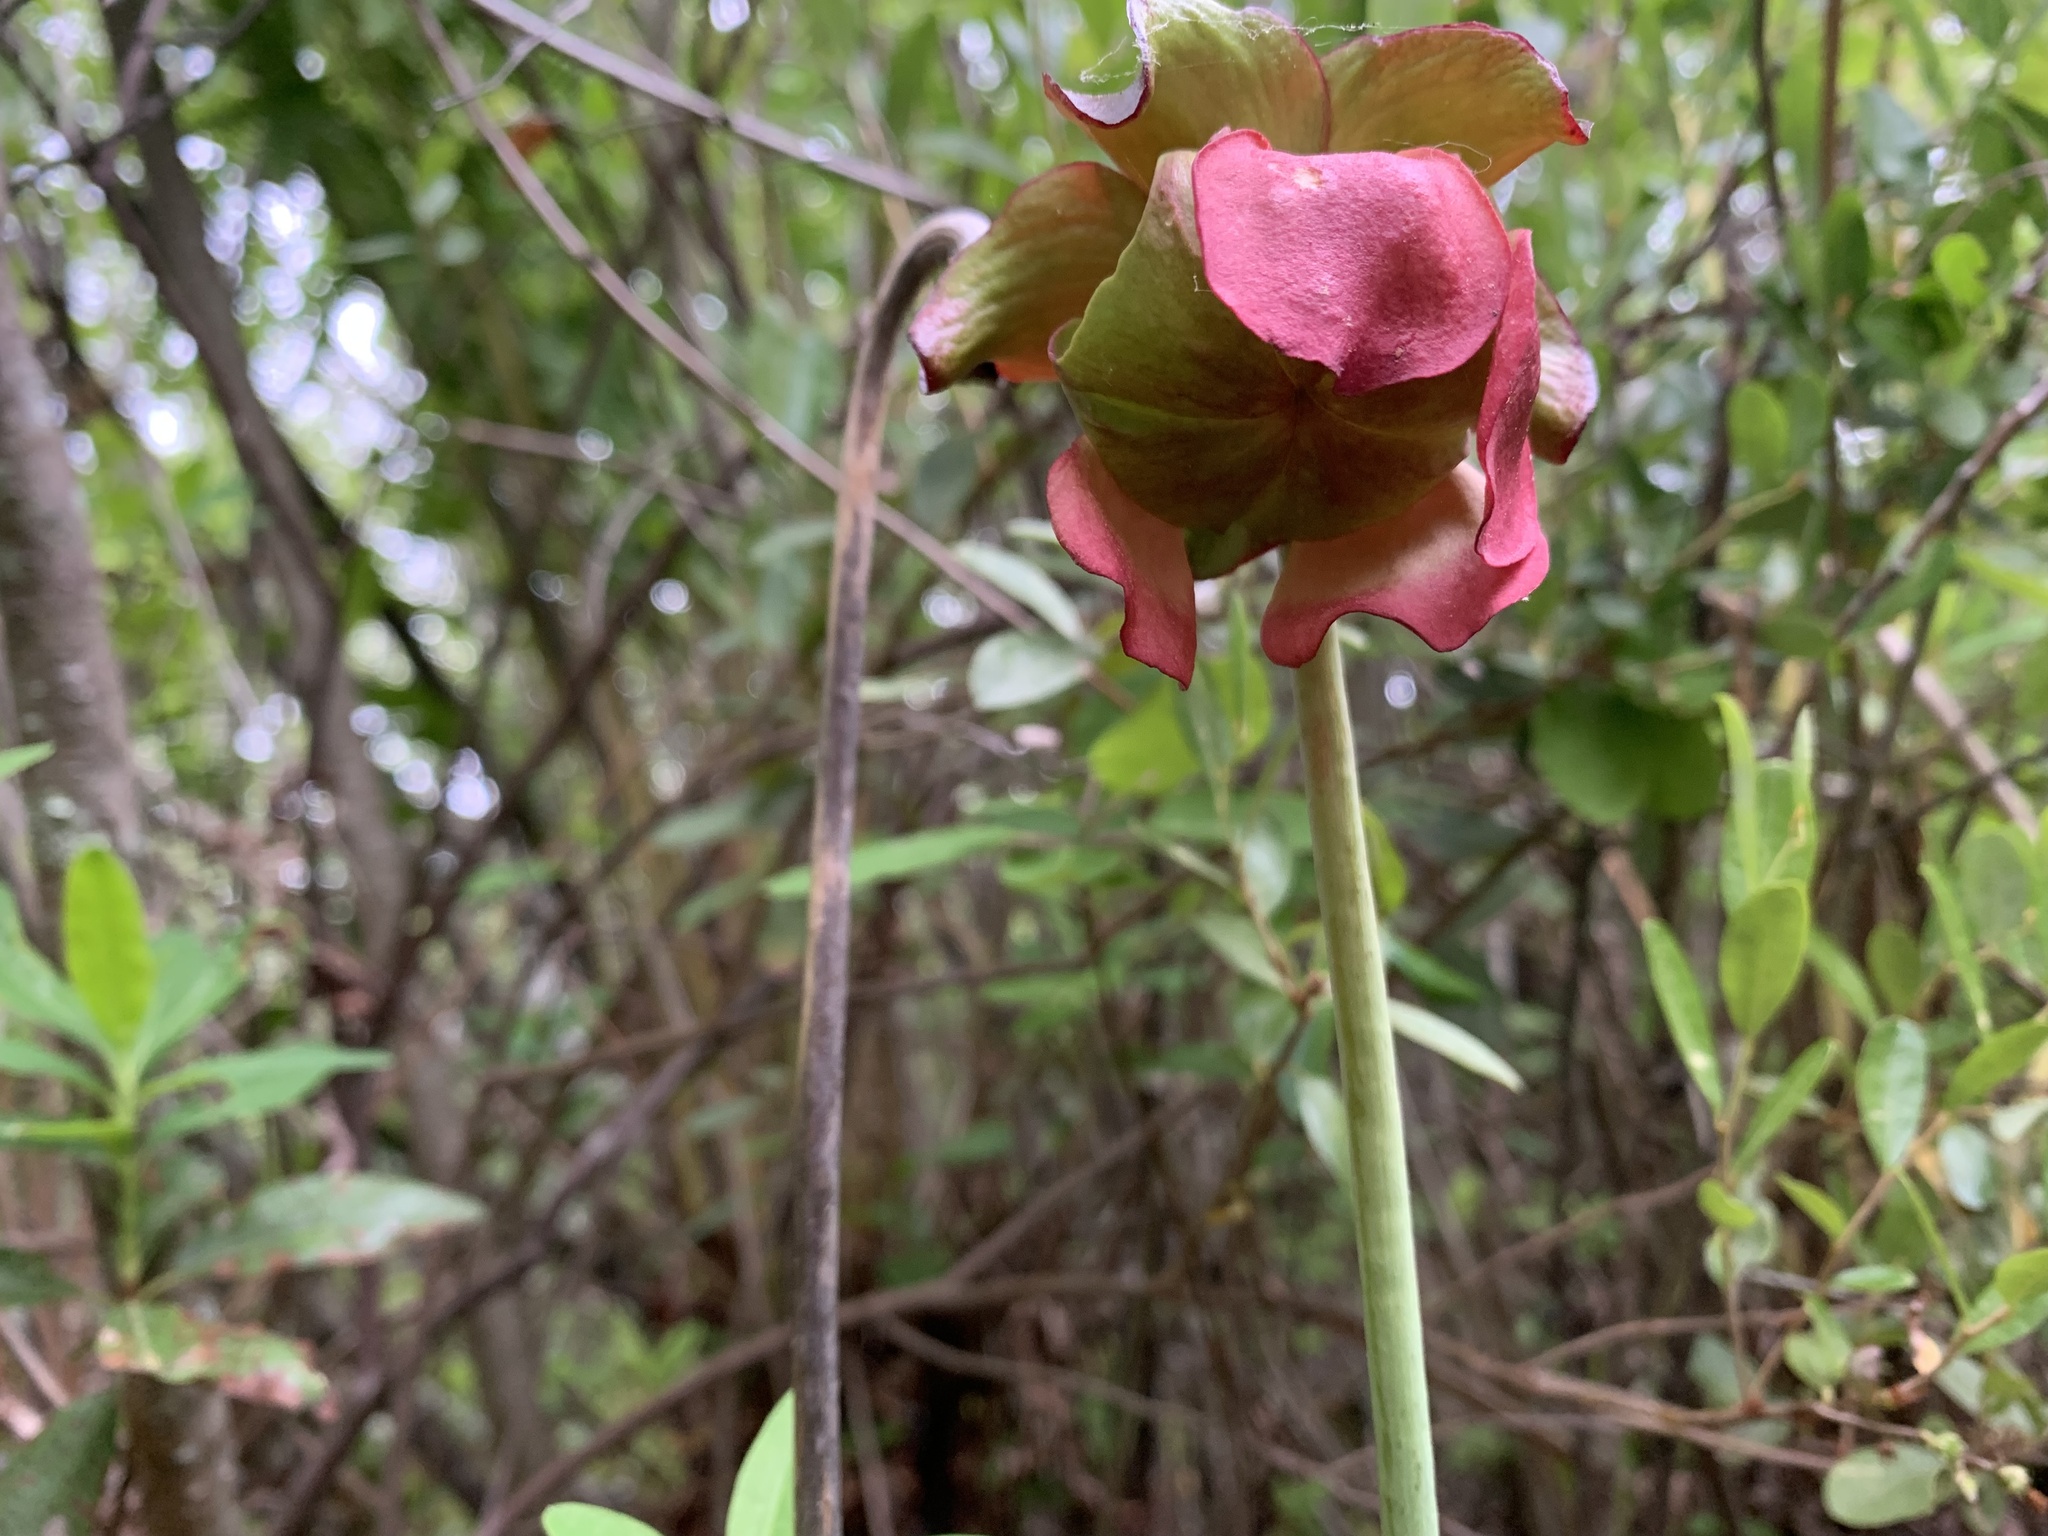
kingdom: Plantae
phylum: Tracheophyta
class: Magnoliopsida
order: Ericales
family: Sarraceniaceae
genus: Sarracenia
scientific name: Sarracenia purpurea
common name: Pitcherplant
